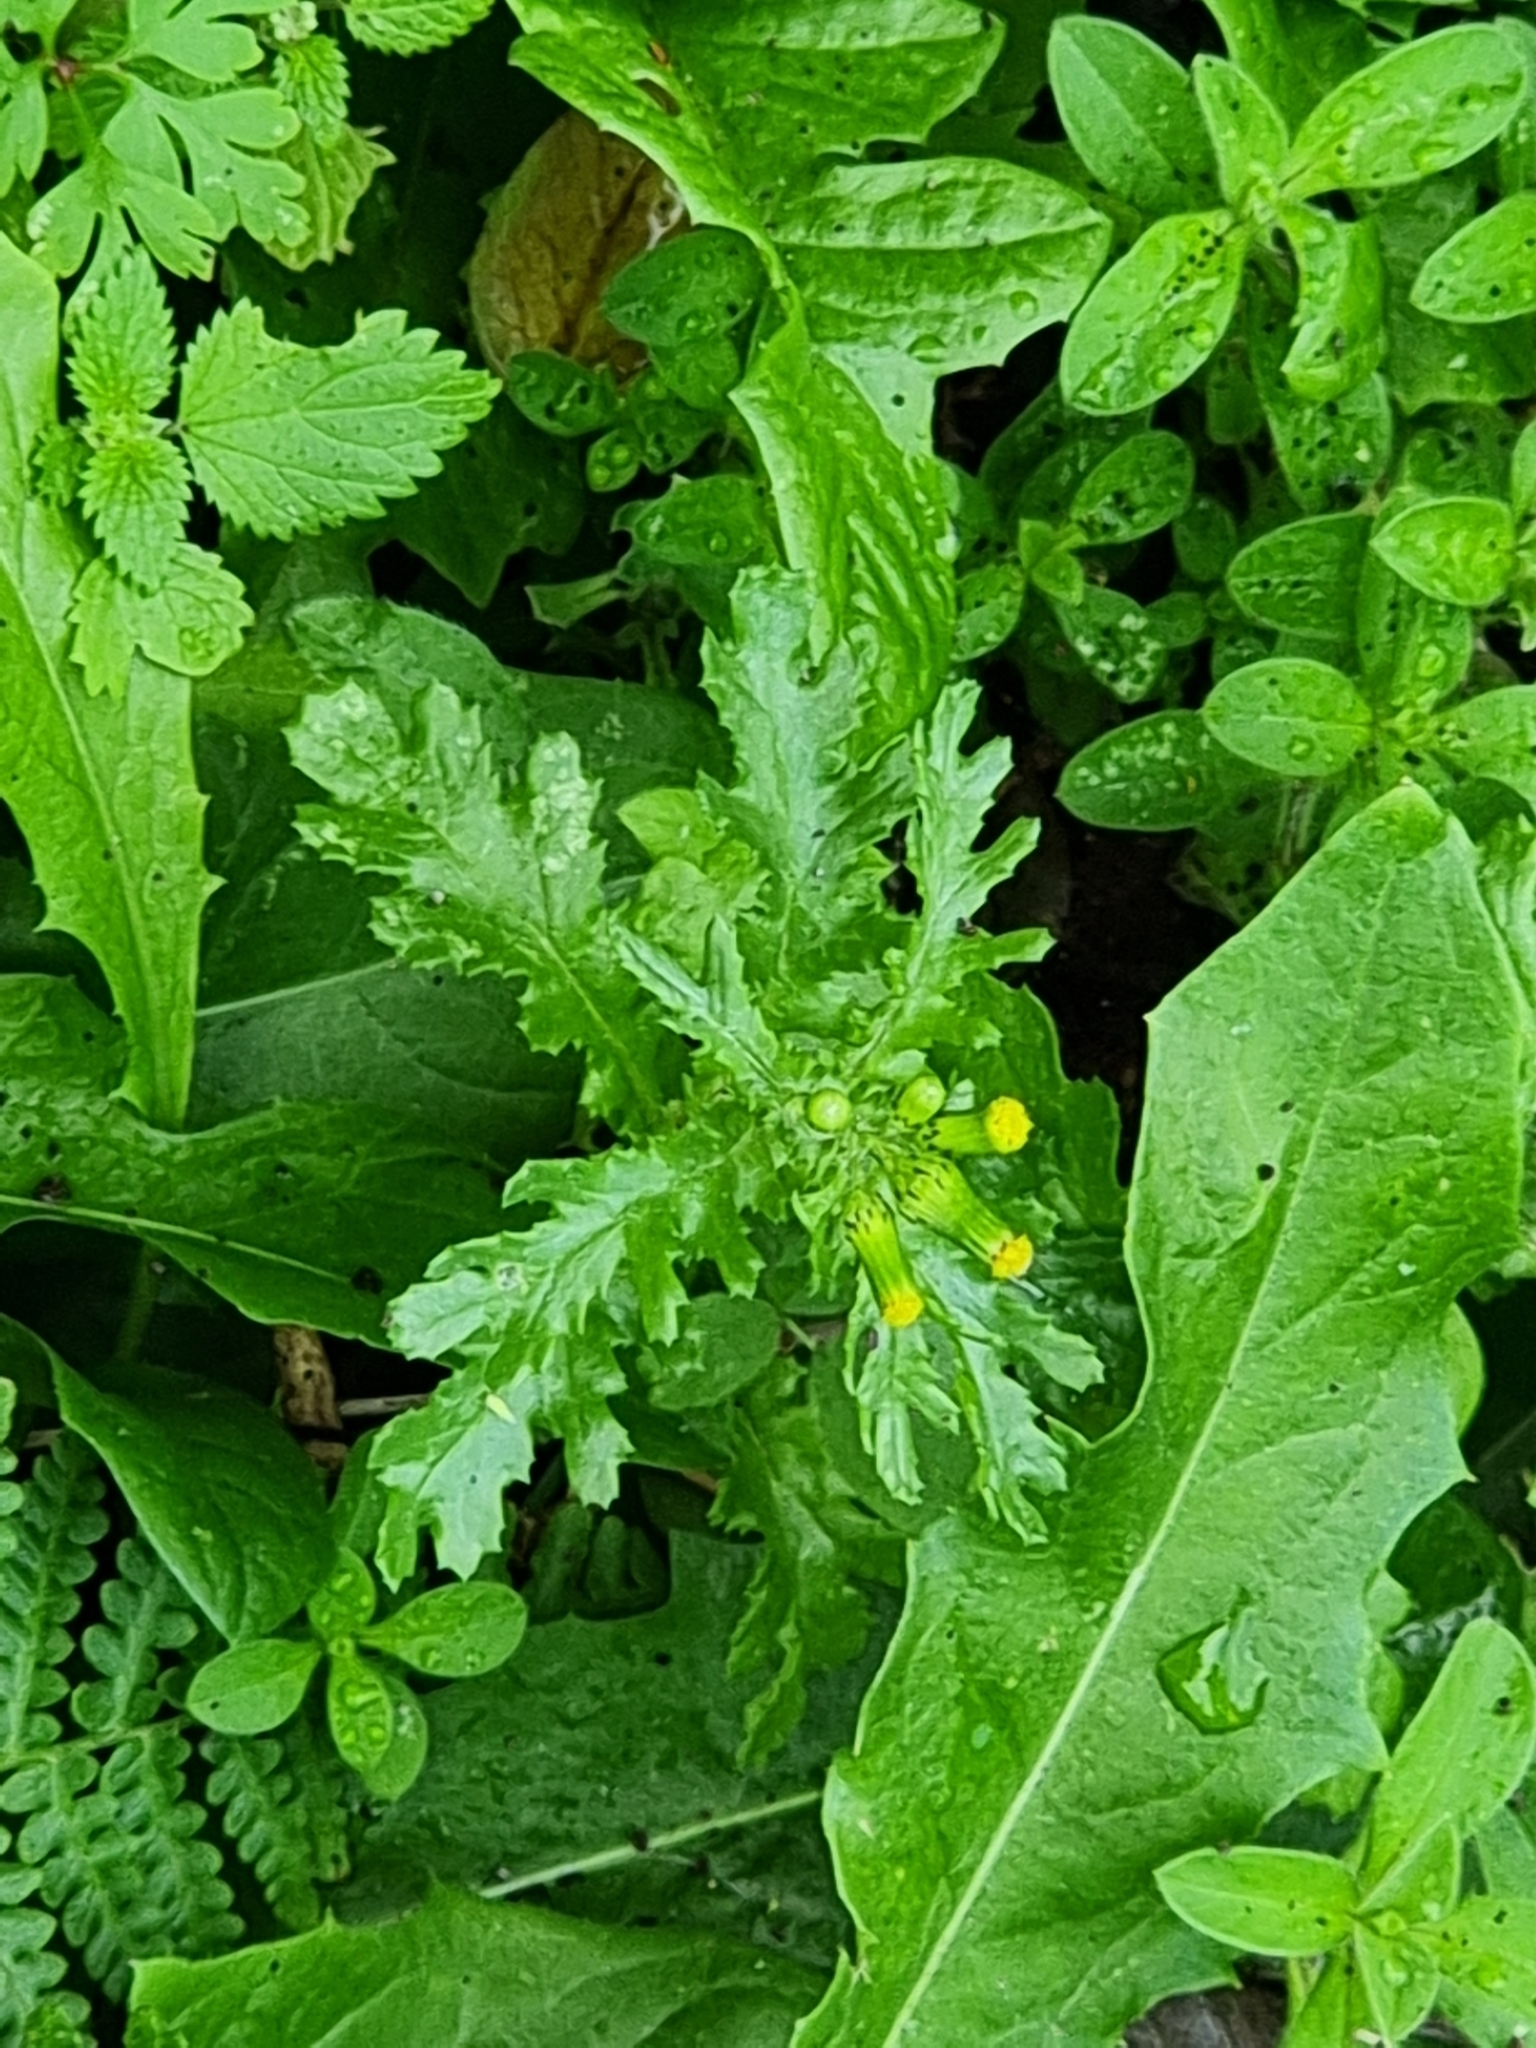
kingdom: Plantae
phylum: Tracheophyta
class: Magnoliopsida
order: Asterales
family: Asteraceae
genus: Senecio
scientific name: Senecio vulgaris
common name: Old-man-in-the-spring
